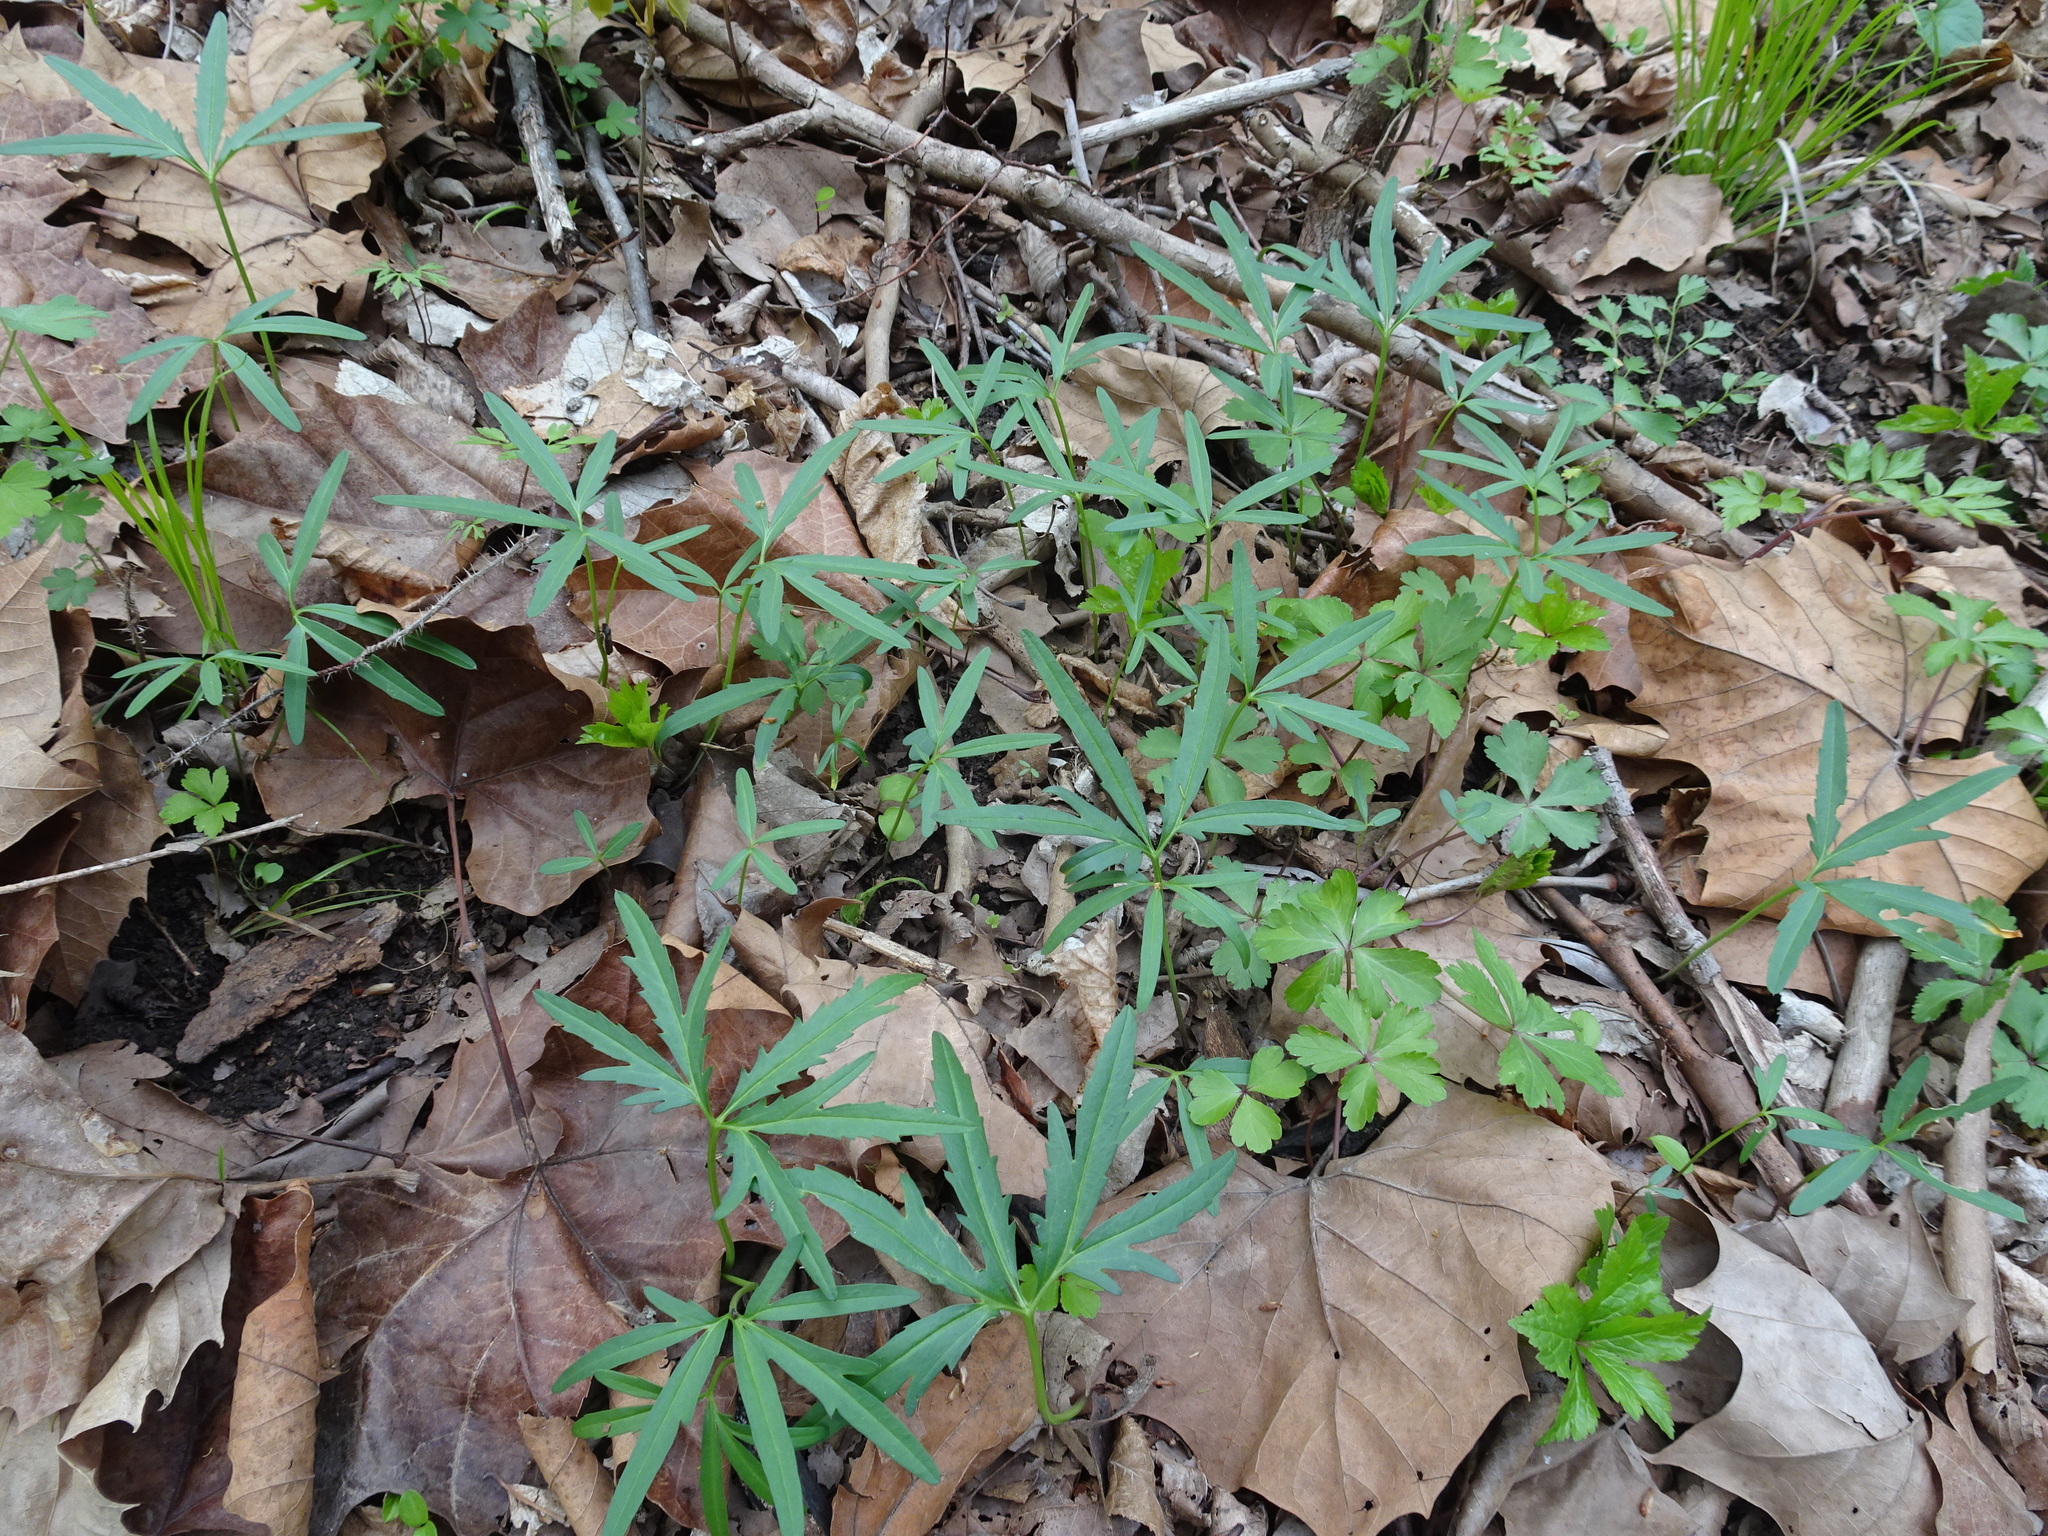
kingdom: Plantae
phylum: Tracheophyta
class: Magnoliopsida
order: Brassicales
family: Brassicaceae
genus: Cardamine
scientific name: Cardamine concatenata
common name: Cut-leaf toothcup
